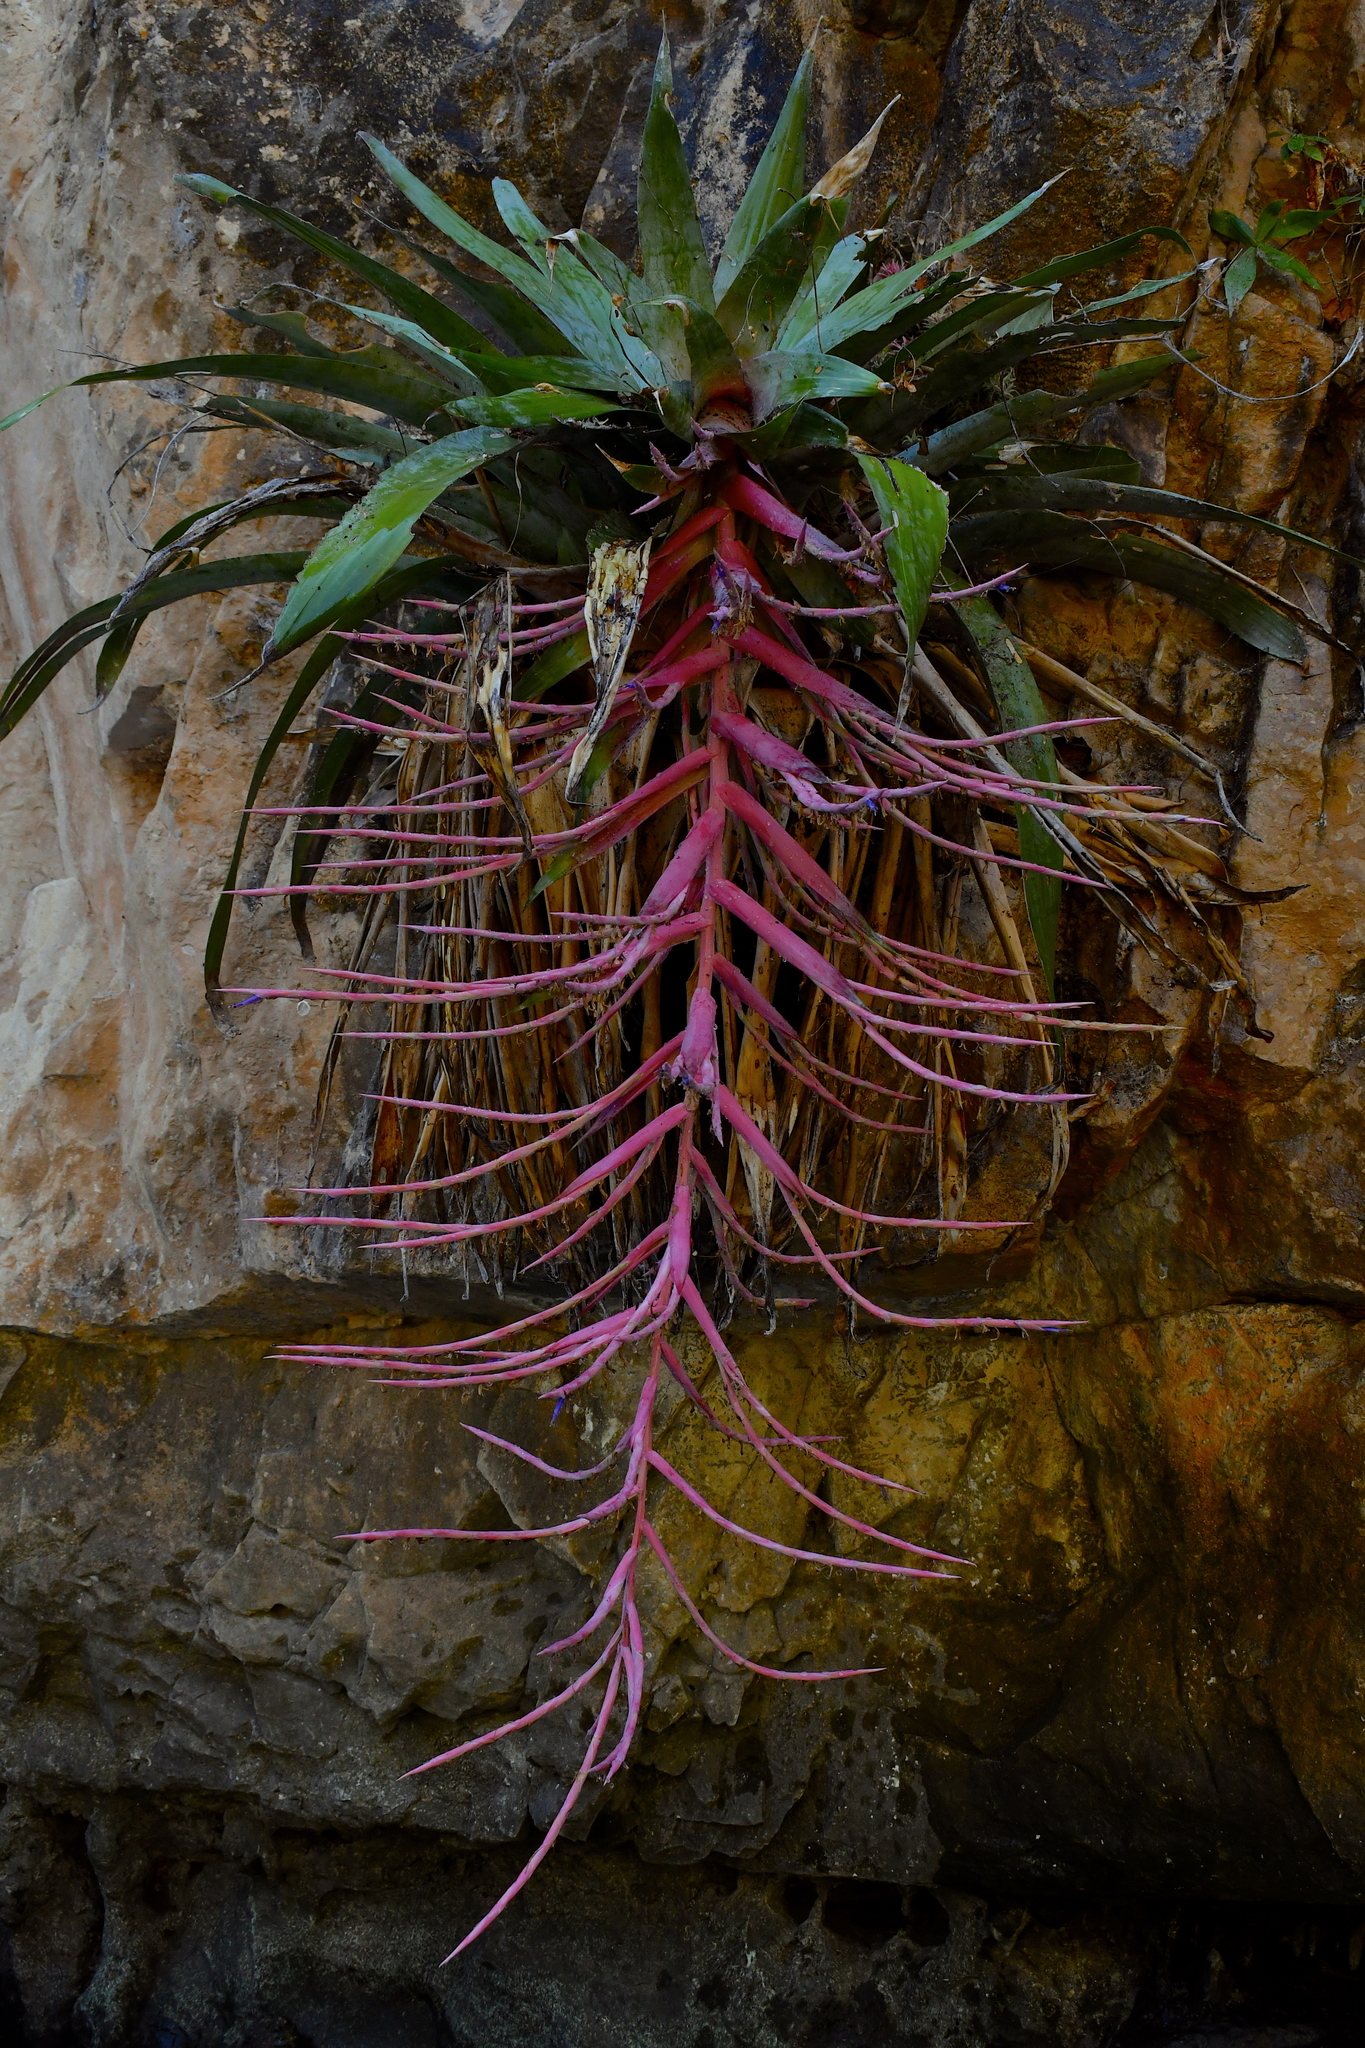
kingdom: Plantae
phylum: Tracheophyta
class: Liliopsida
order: Poales
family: Bromeliaceae
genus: Tillandsia
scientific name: Tillandsia juerg-rutschmannii
